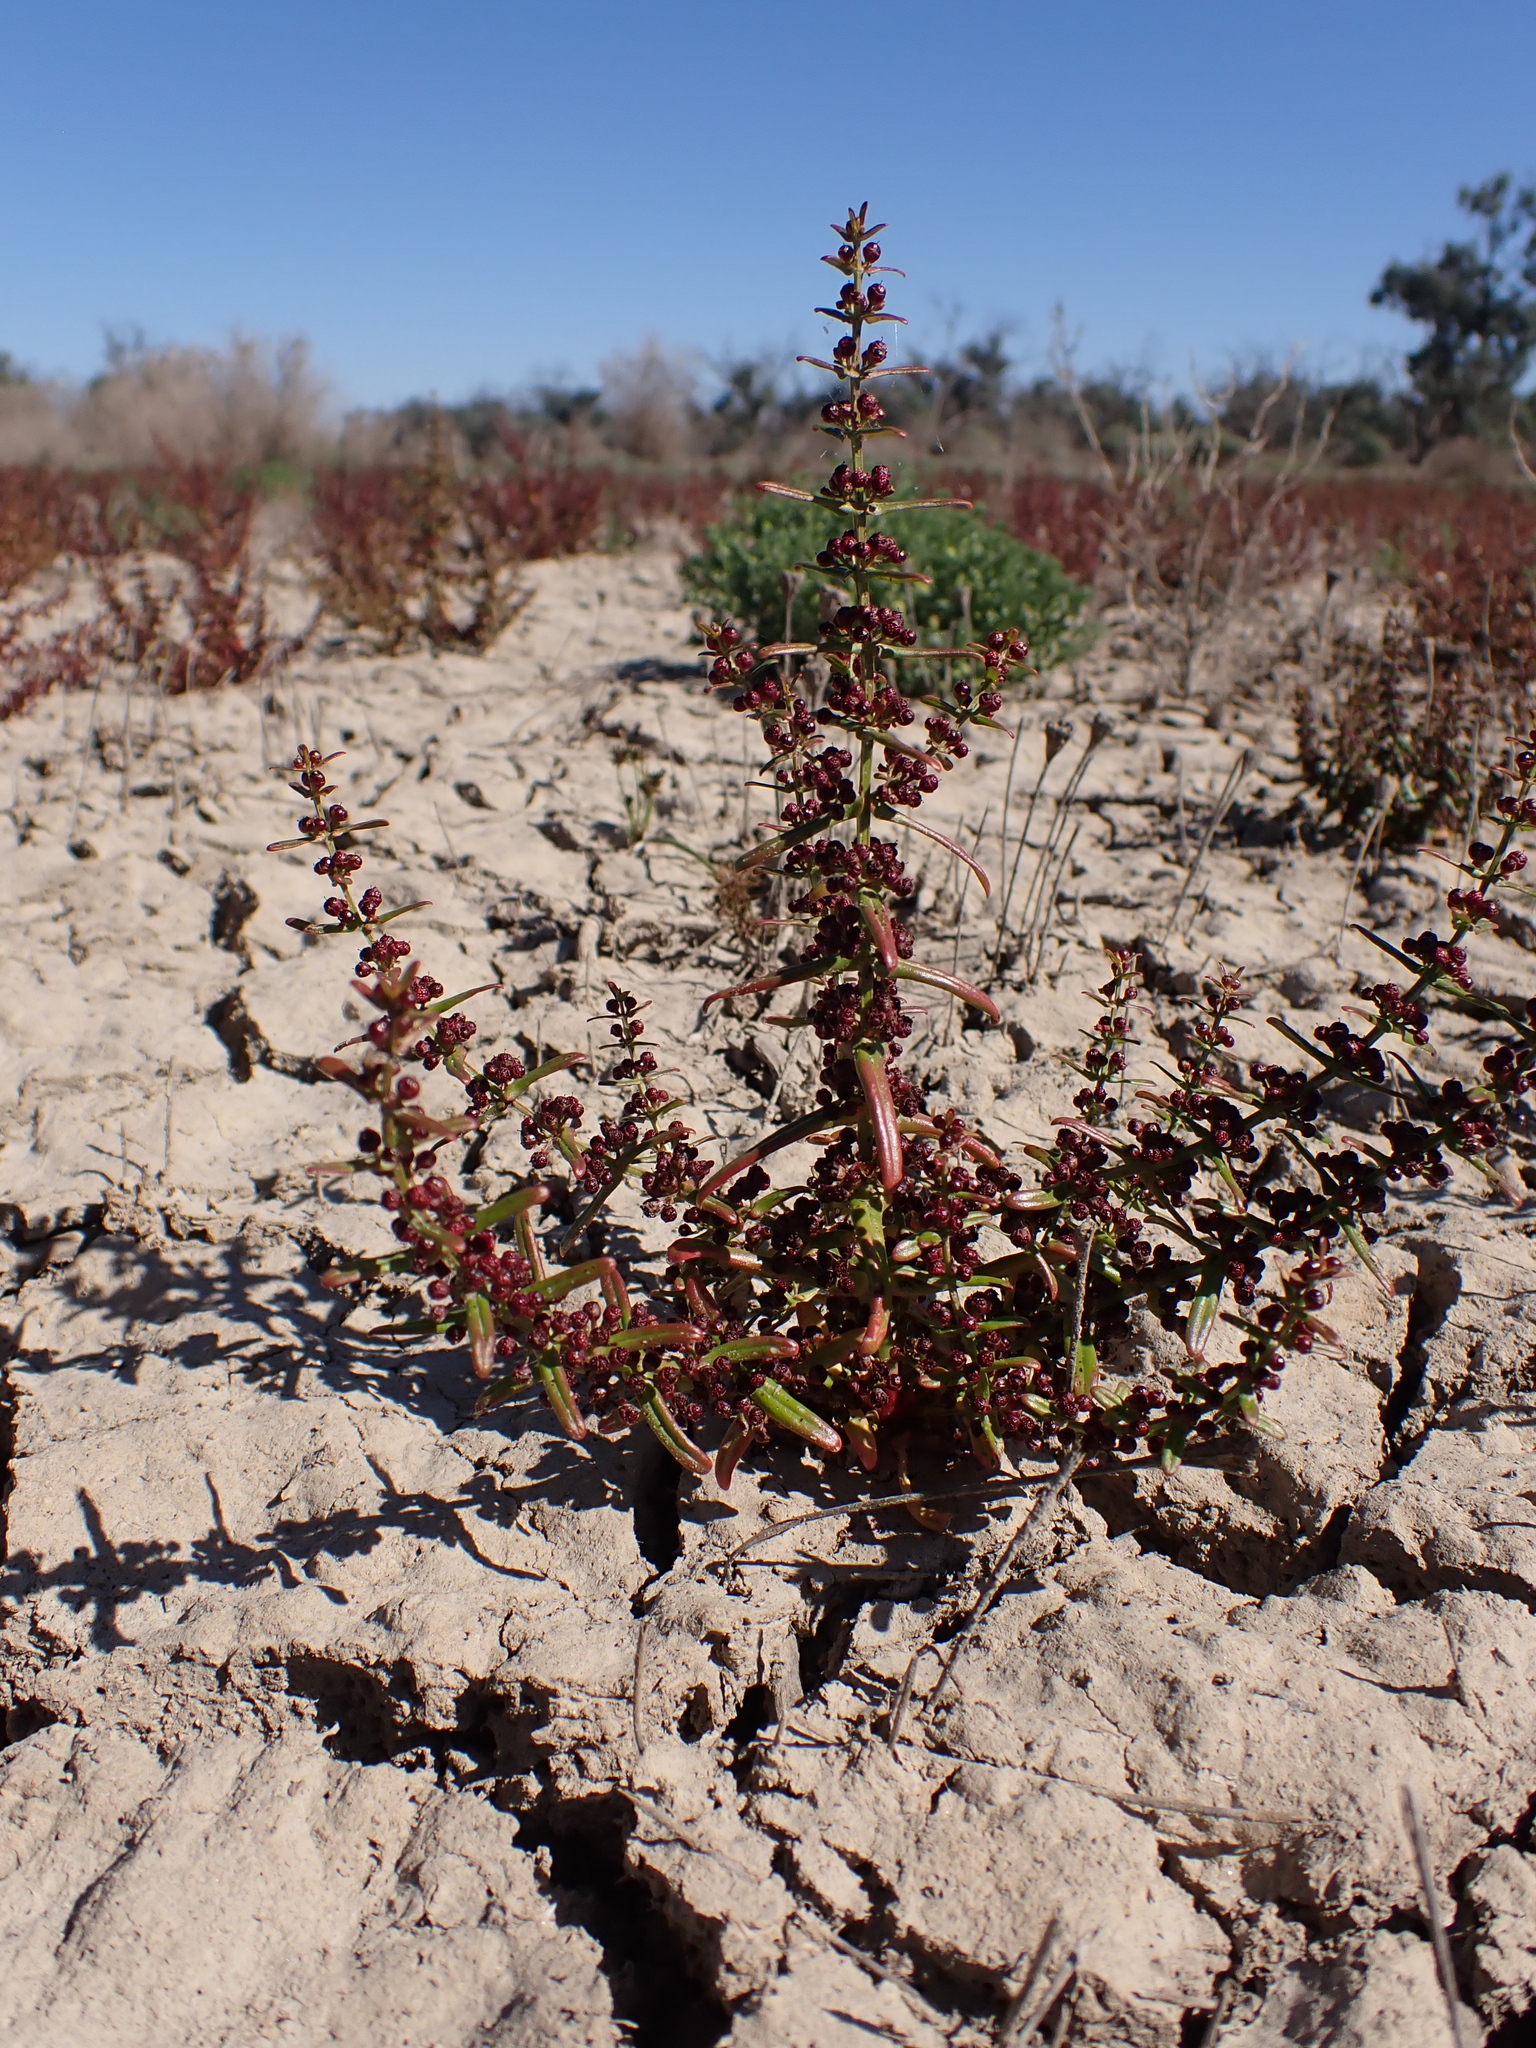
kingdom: Plantae
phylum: Tracheophyta
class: Magnoliopsida
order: Myrtales
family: Lythraceae
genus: Ammannia
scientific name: Ammannia auriculata
